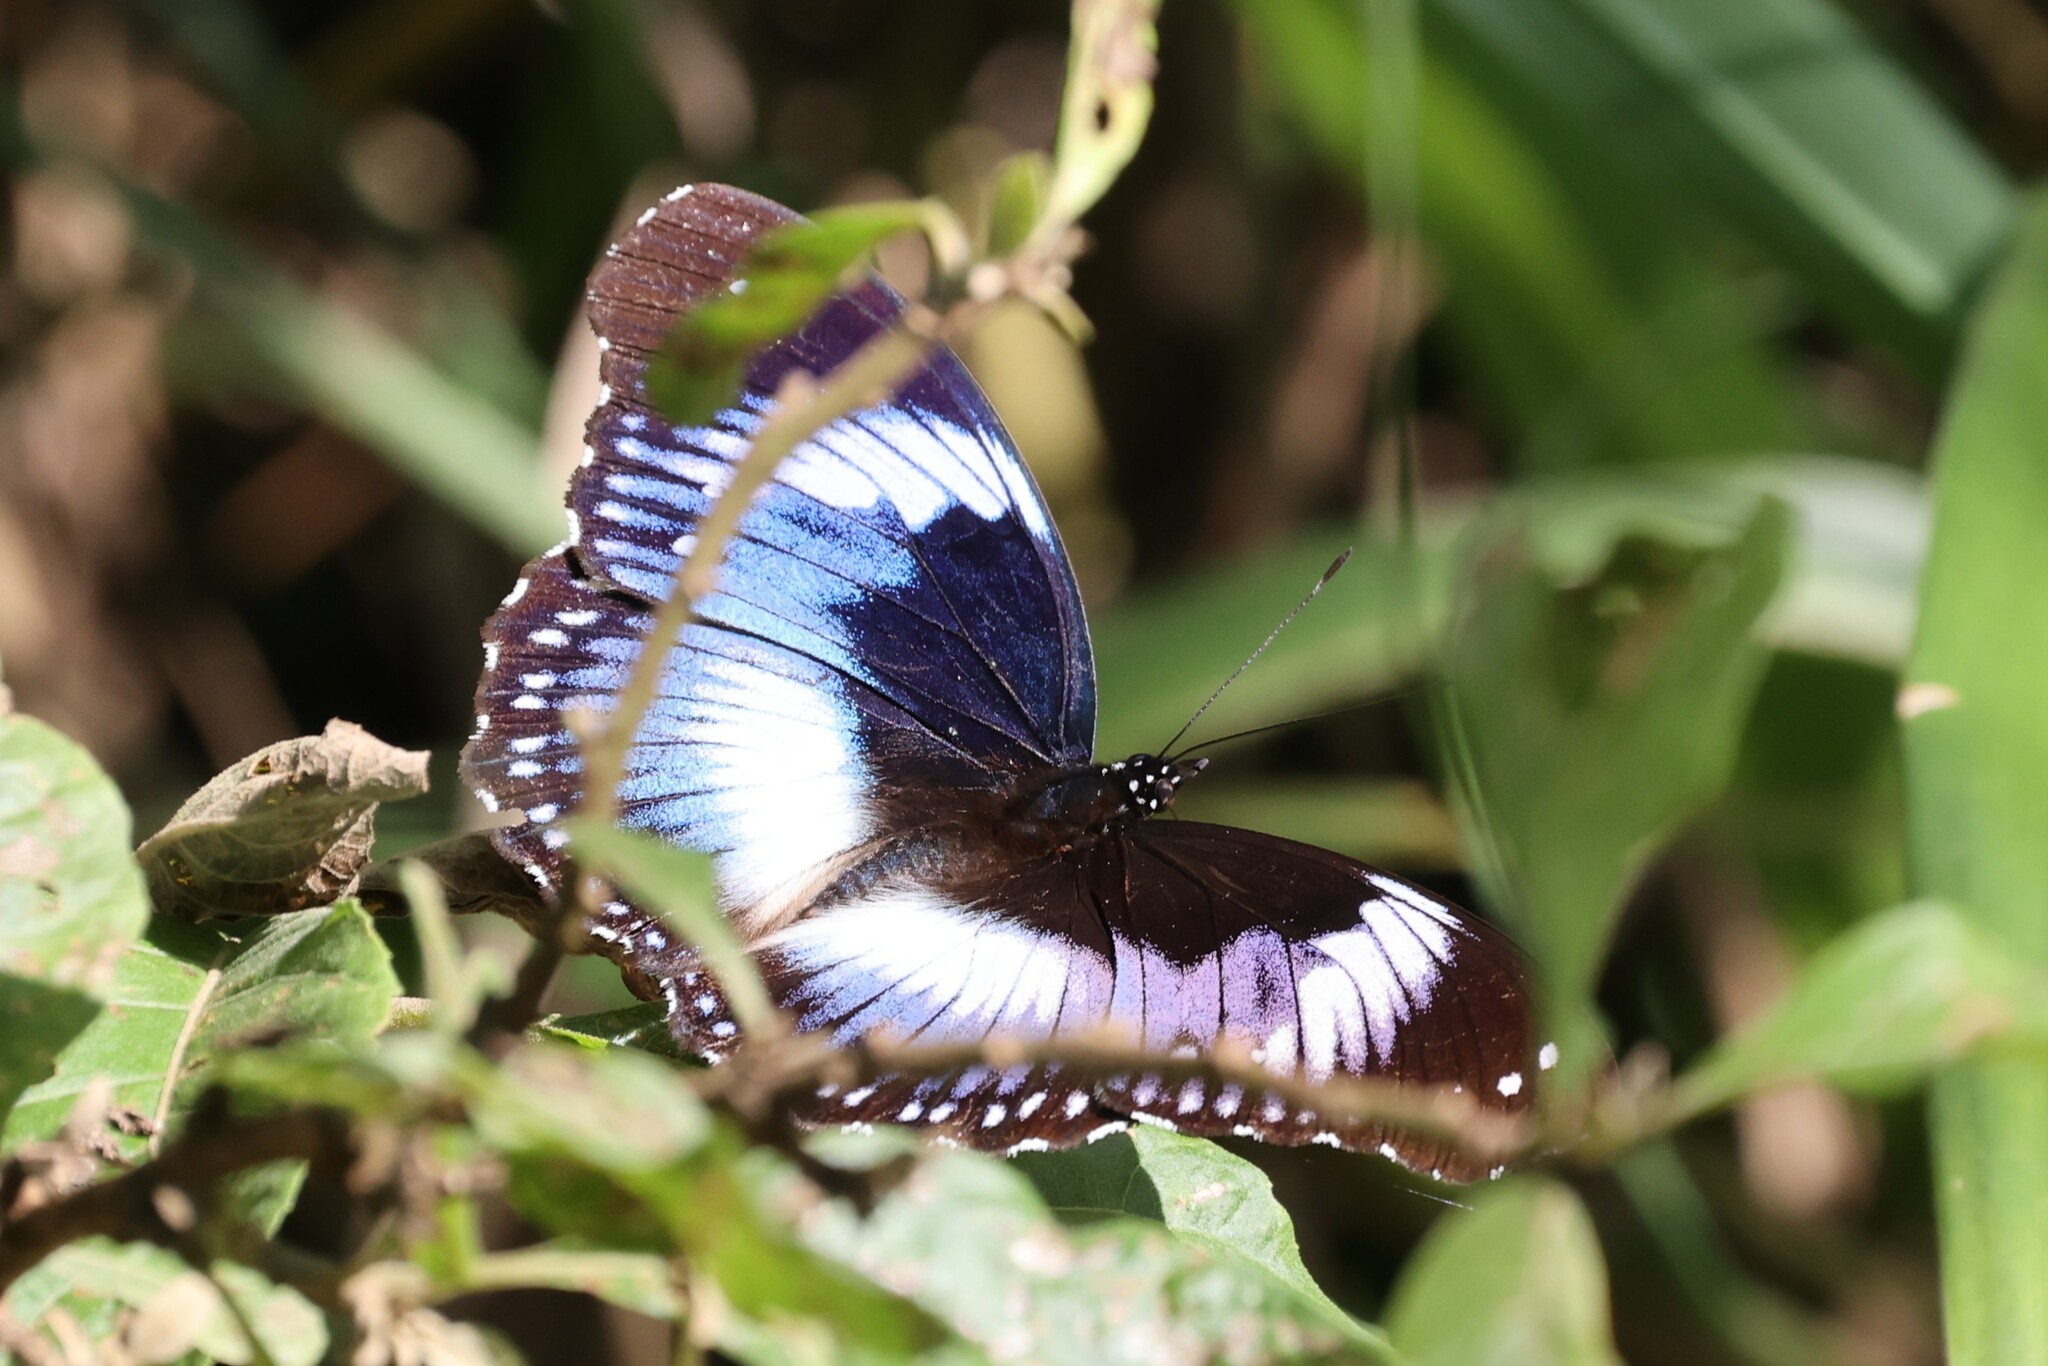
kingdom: Animalia
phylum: Arthropoda
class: Insecta
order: Lepidoptera
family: Nymphalidae
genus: Hypolimnas
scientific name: Hypolimnas salmacis
